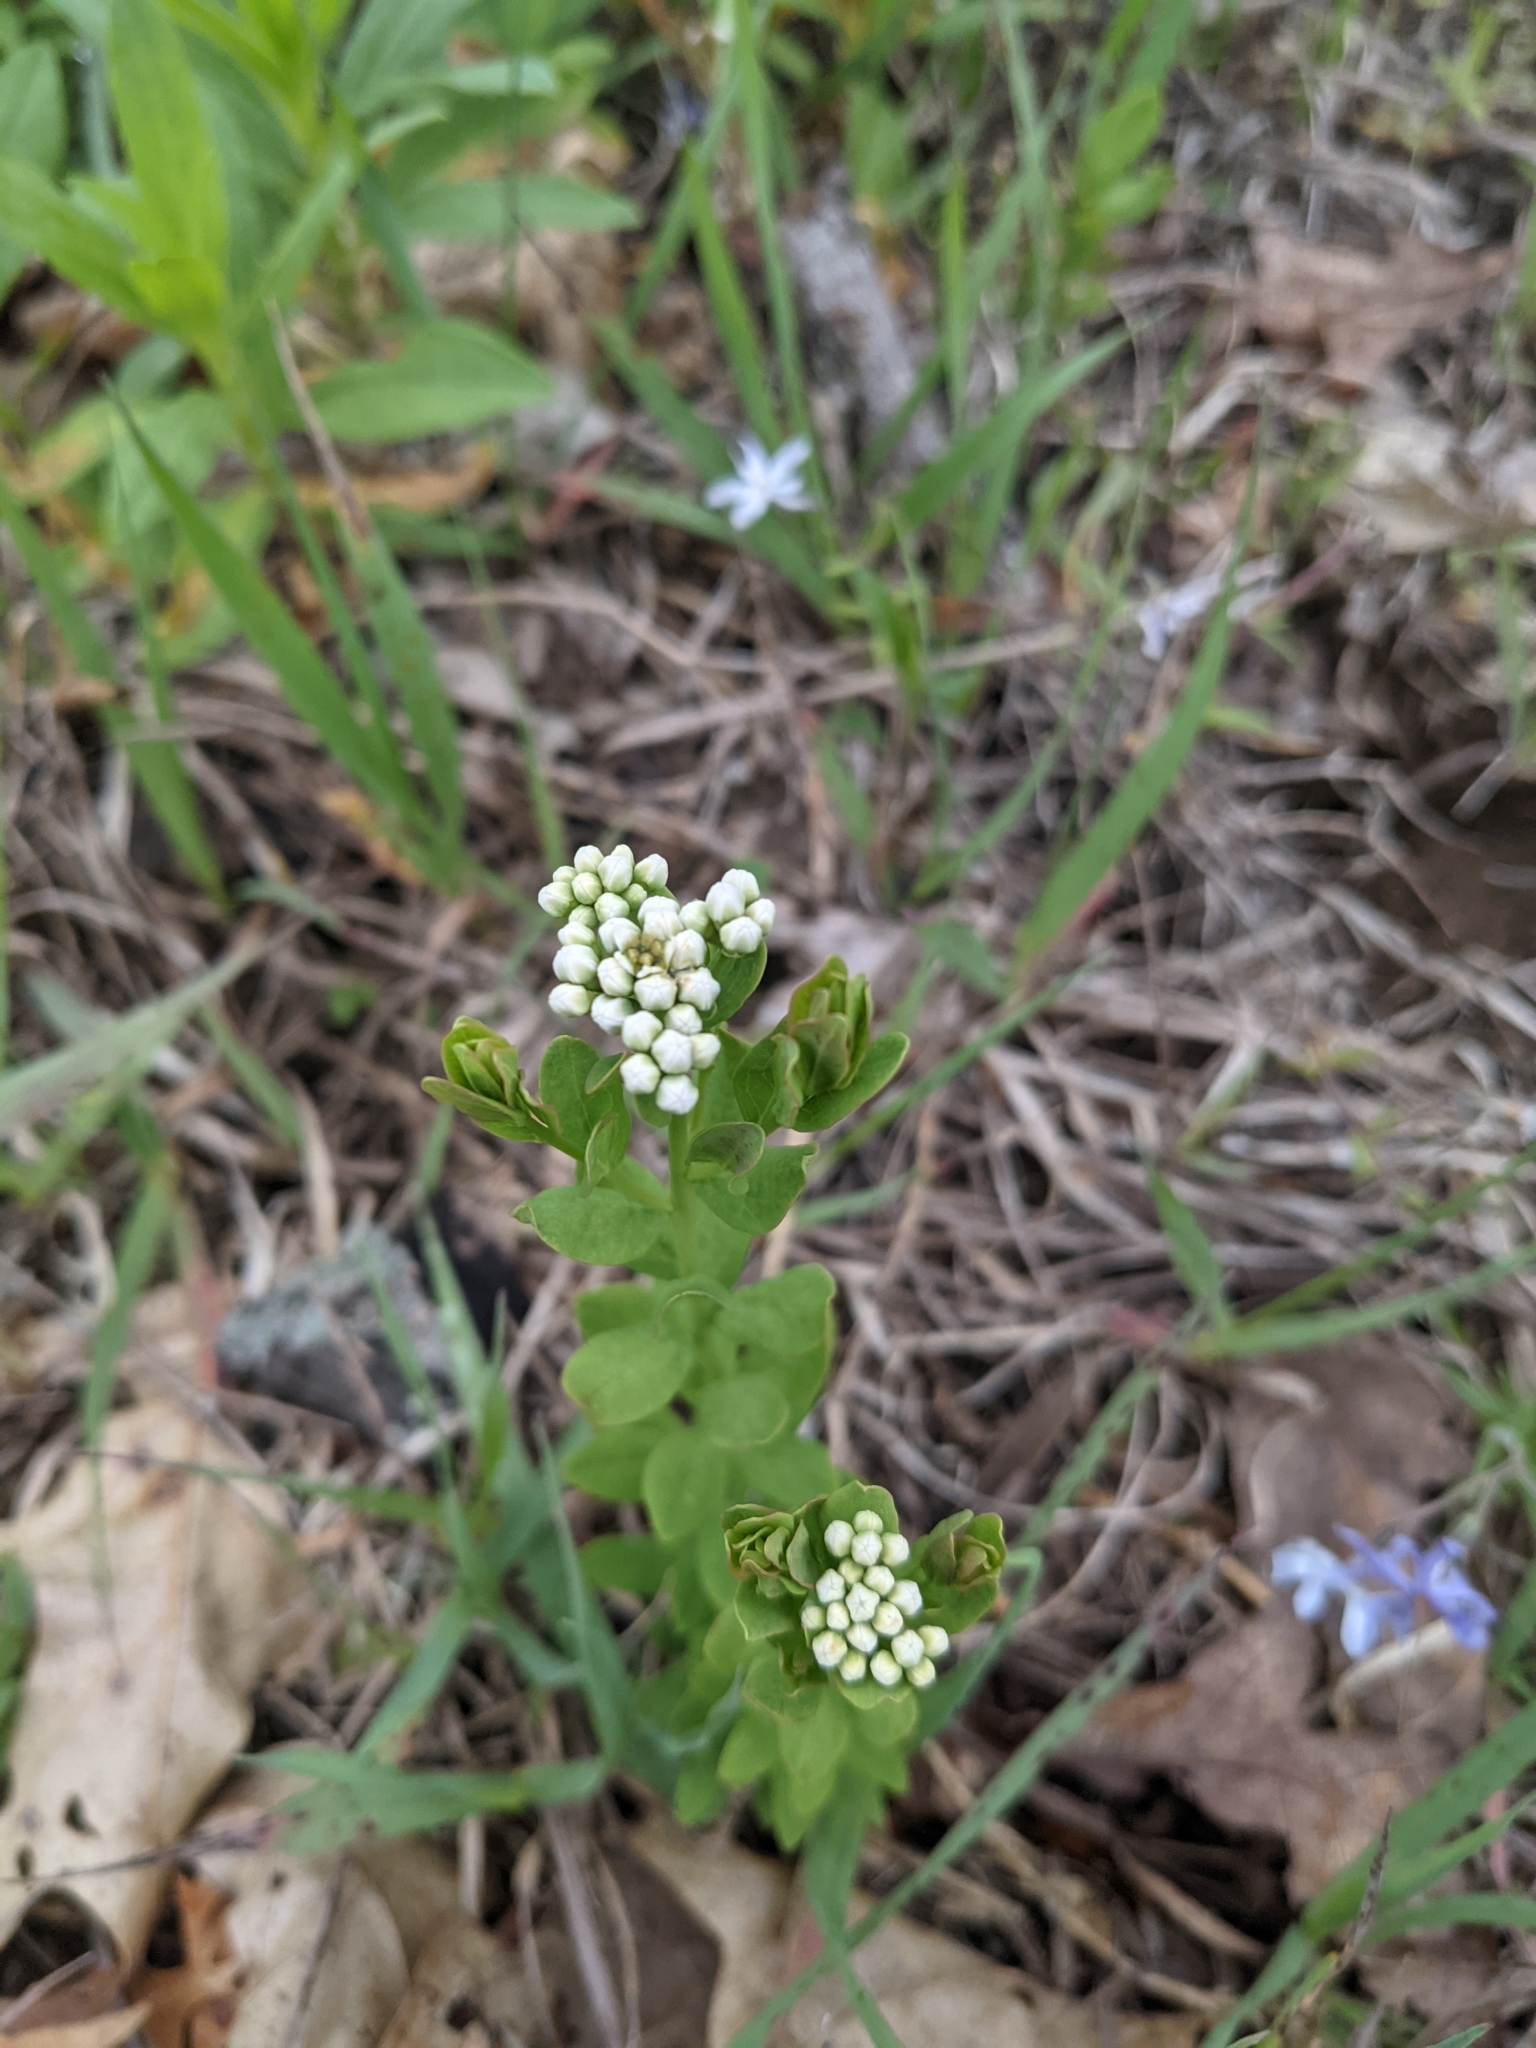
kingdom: Plantae
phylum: Tracheophyta
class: Magnoliopsida
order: Santalales
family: Comandraceae
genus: Comandra
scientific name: Comandra umbellata
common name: Bastard toadflax
